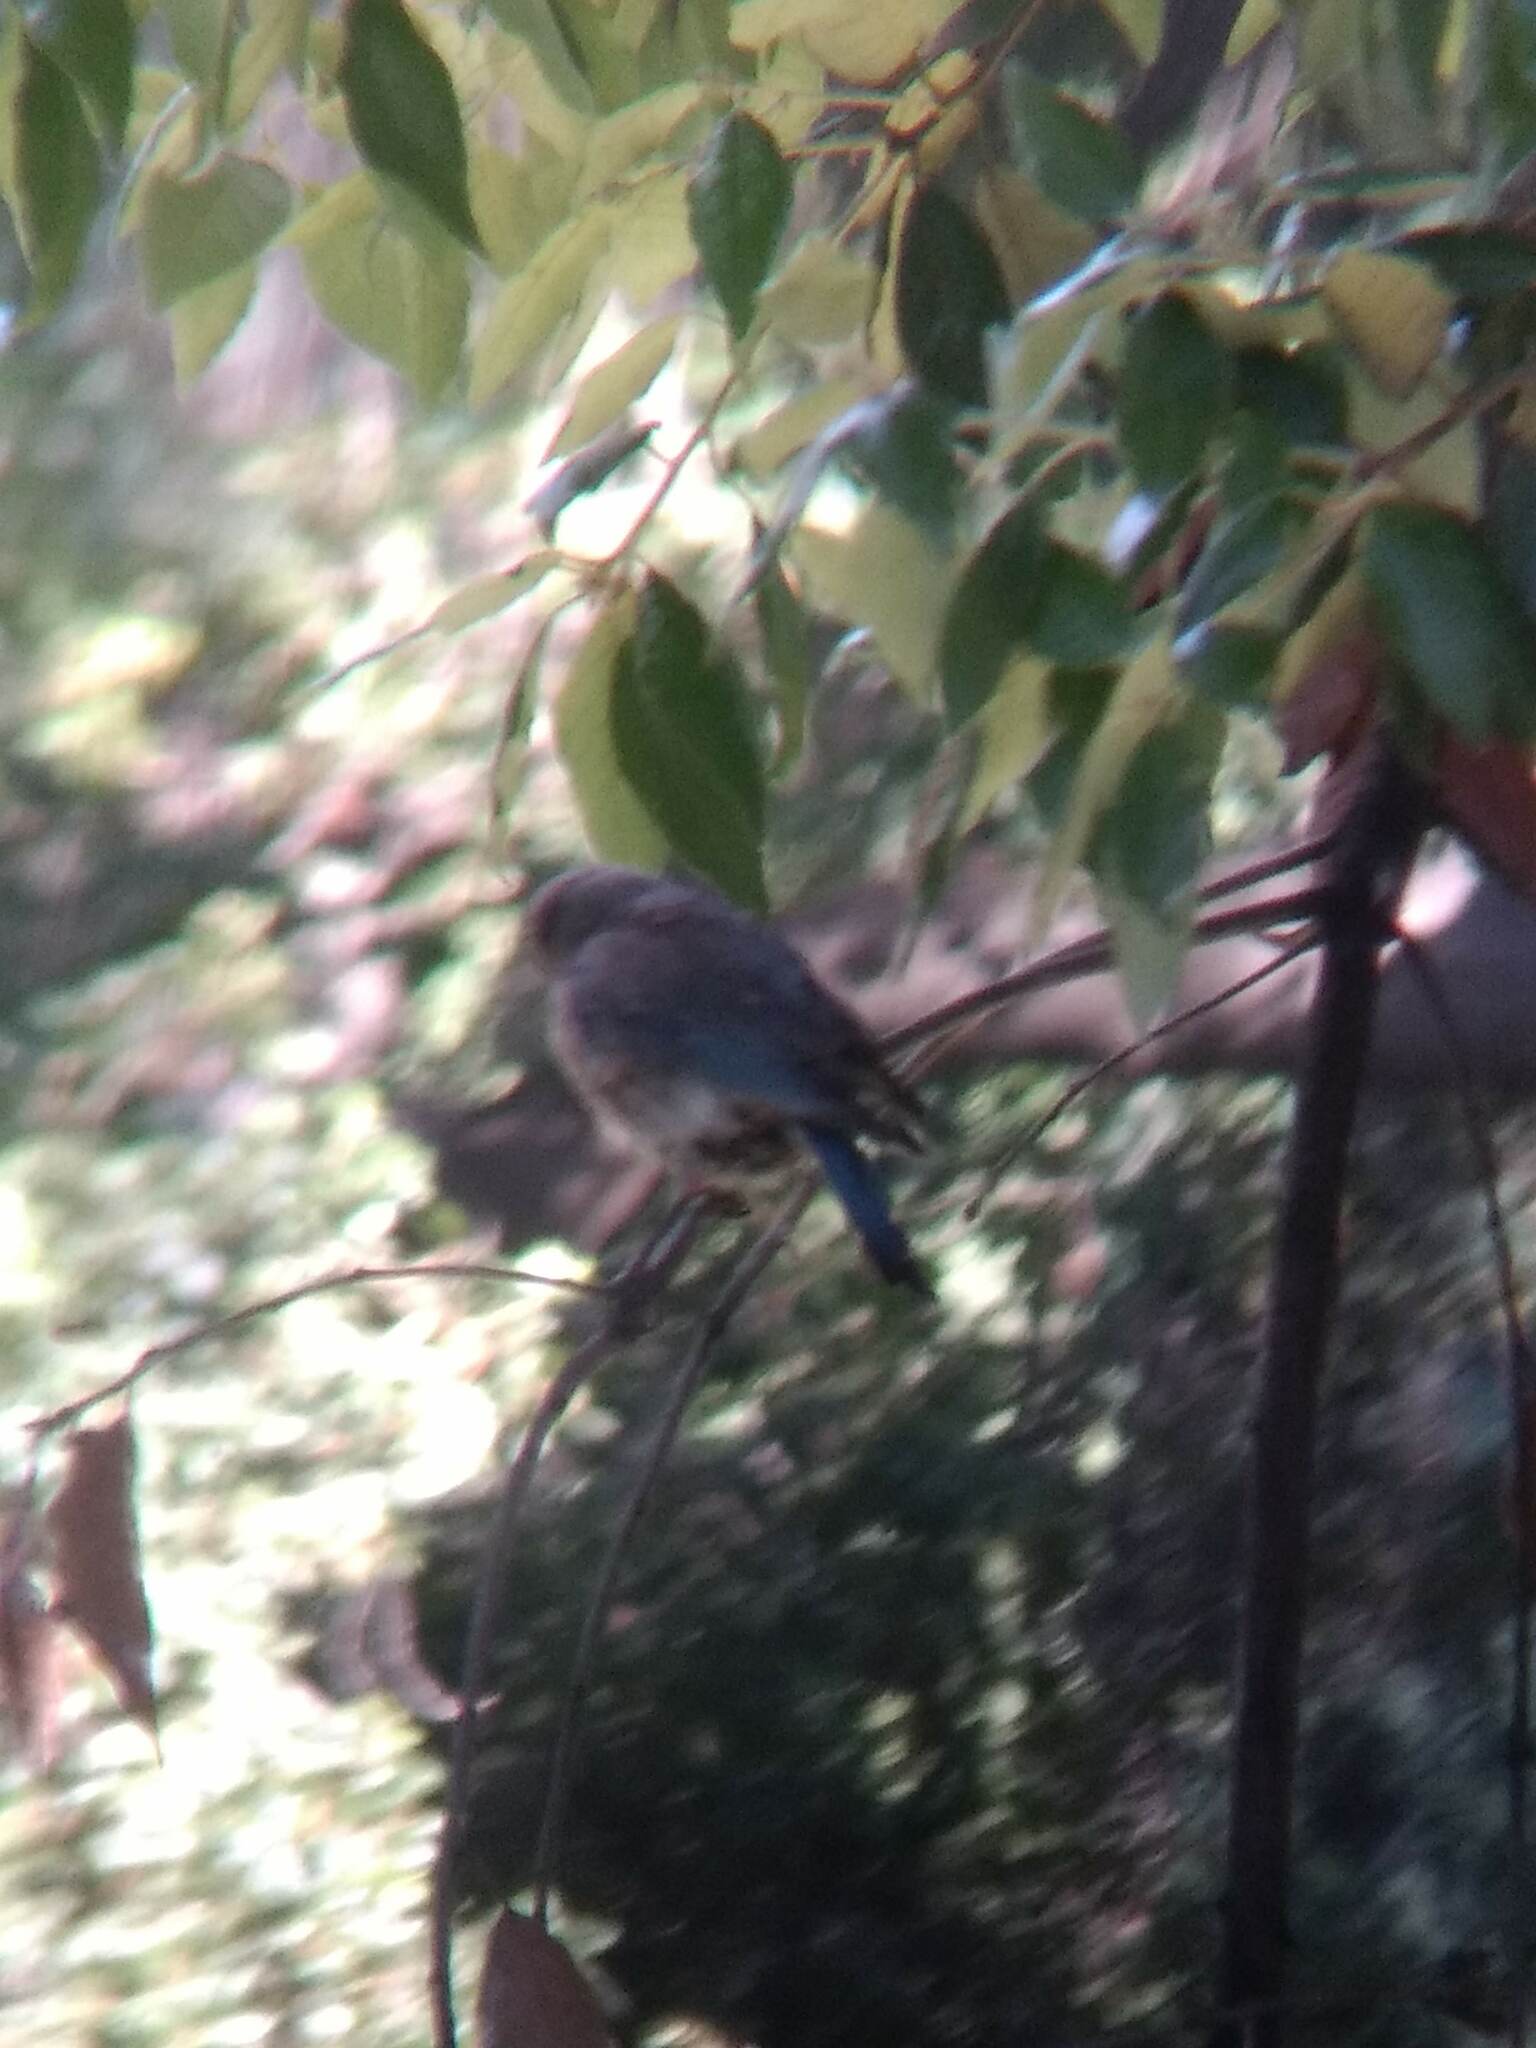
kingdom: Animalia
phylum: Chordata
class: Aves
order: Passeriformes
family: Turdidae
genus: Sialia
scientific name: Sialia mexicana
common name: Western bluebird
